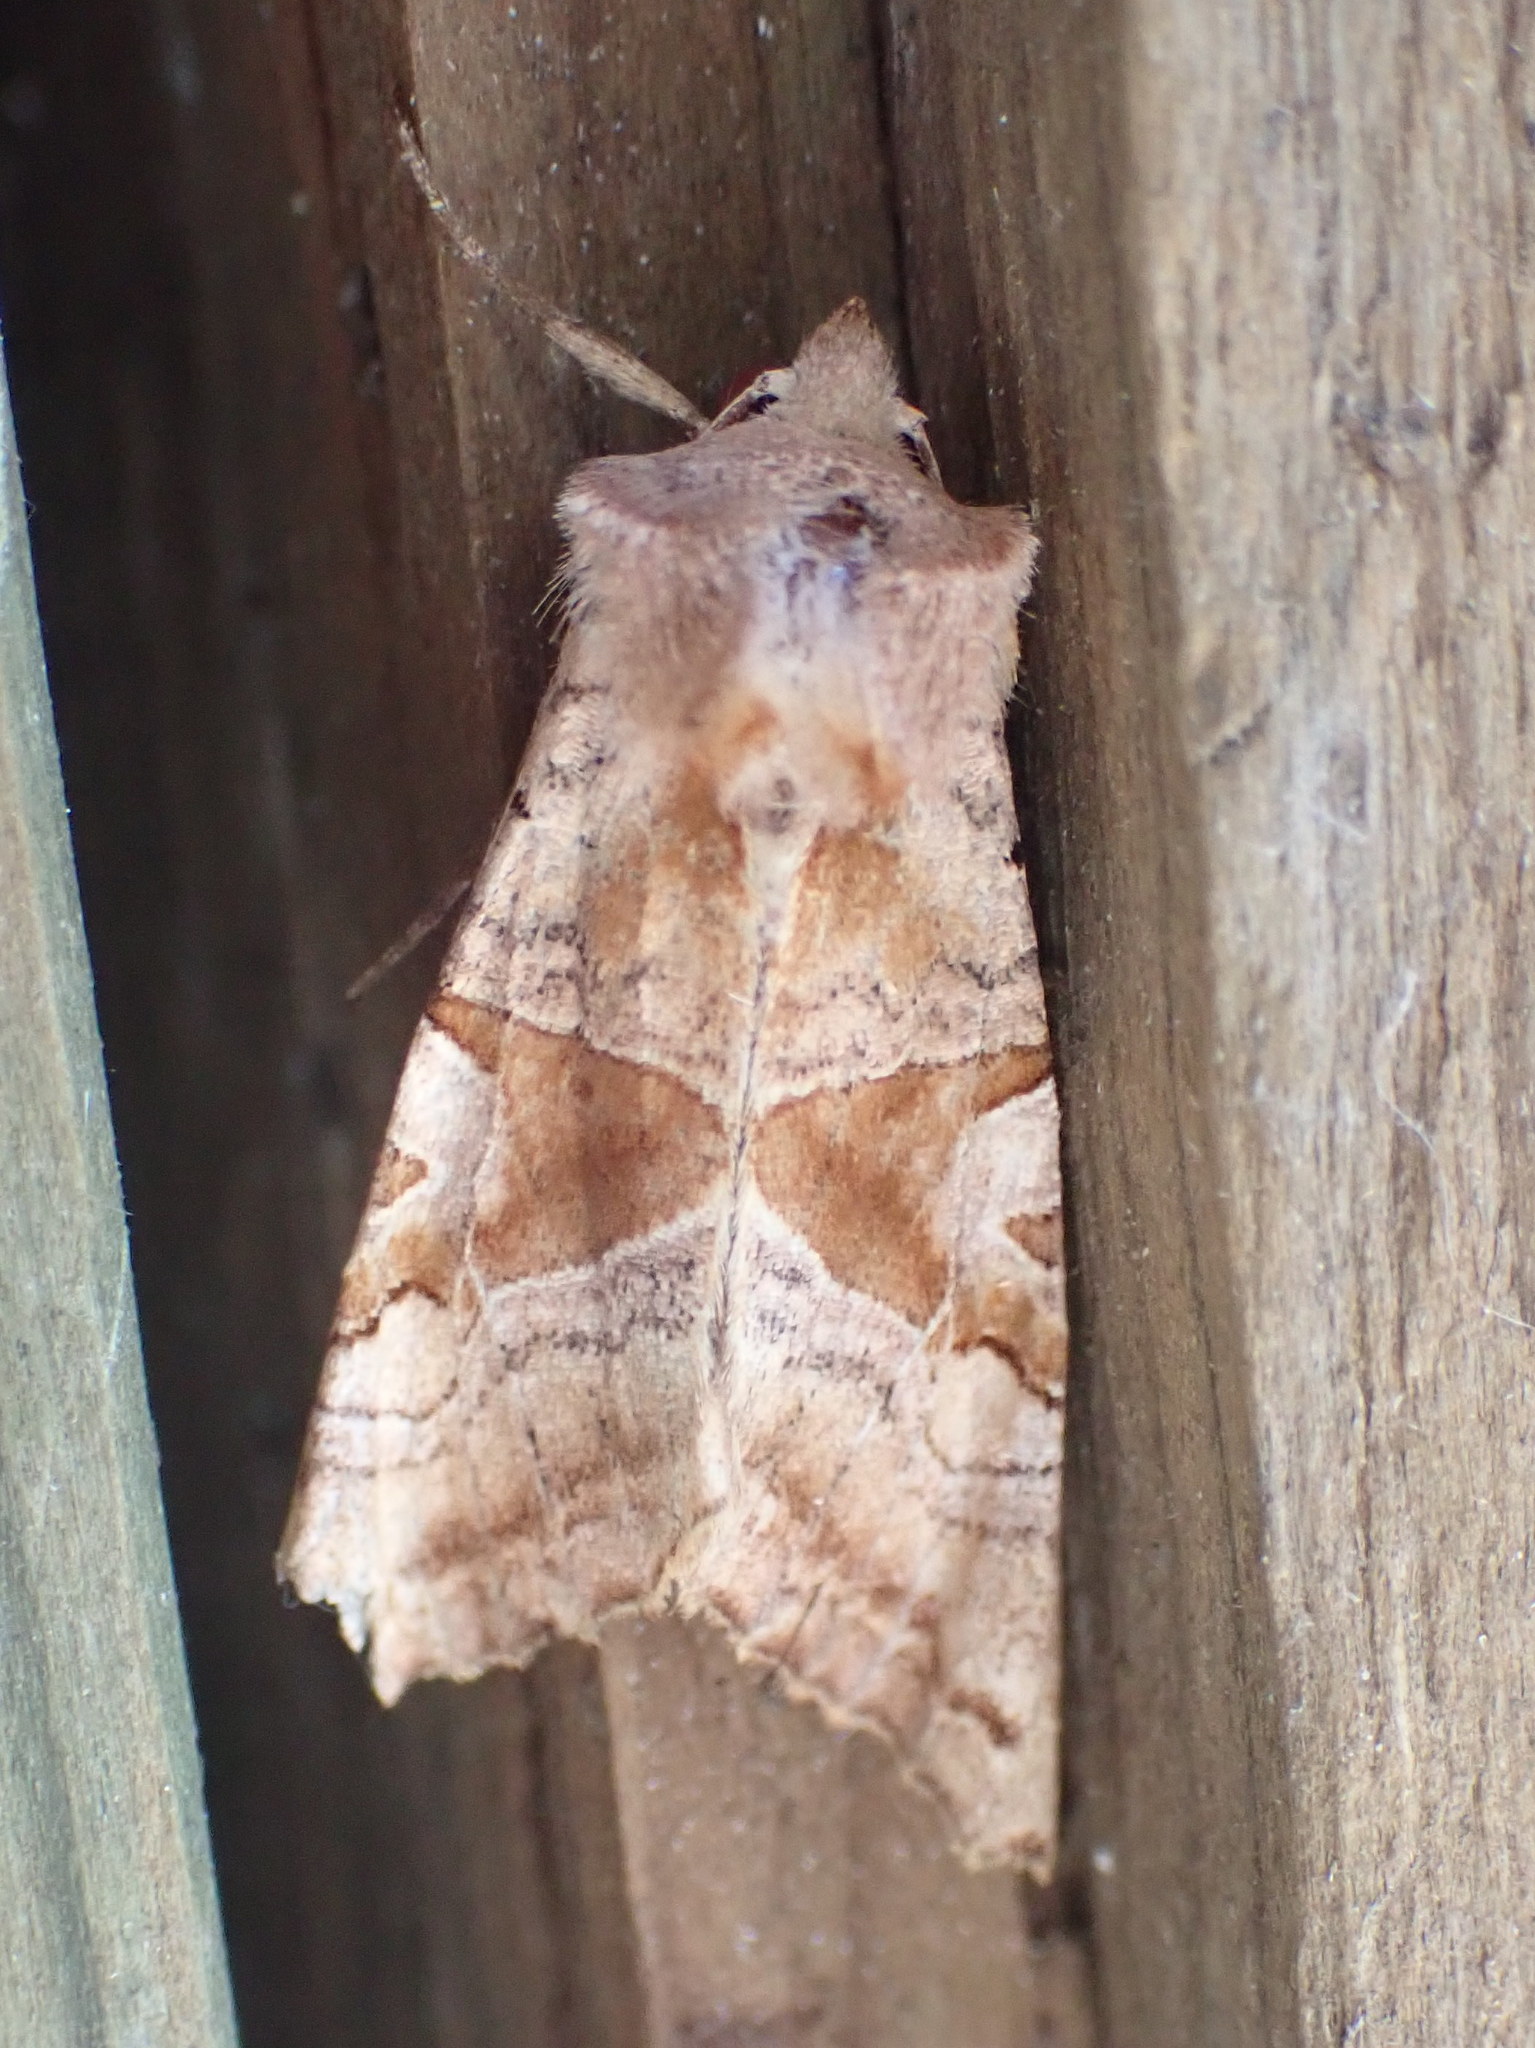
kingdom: Animalia
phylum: Arthropoda
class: Insecta
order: Lepidoptera
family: Noctuidae
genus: Phlogophora
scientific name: Phlogophora periculosa
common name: Brown angle shades
